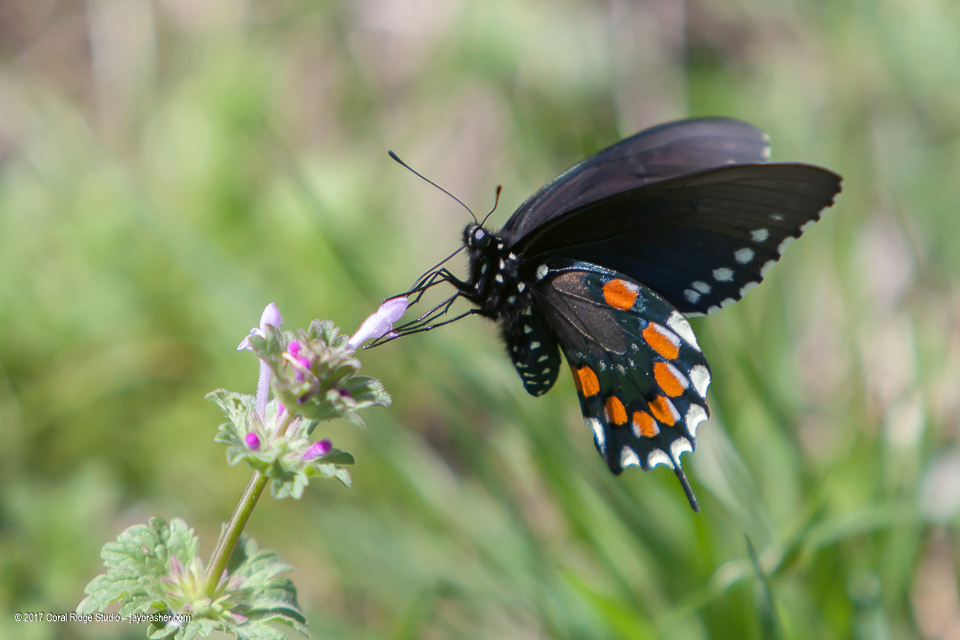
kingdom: Animalia
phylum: Arthropoda
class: Insecta
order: Lepidoptera
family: Papilionidae
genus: Battus
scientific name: Battus philenor
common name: Pipevine swallowtail
